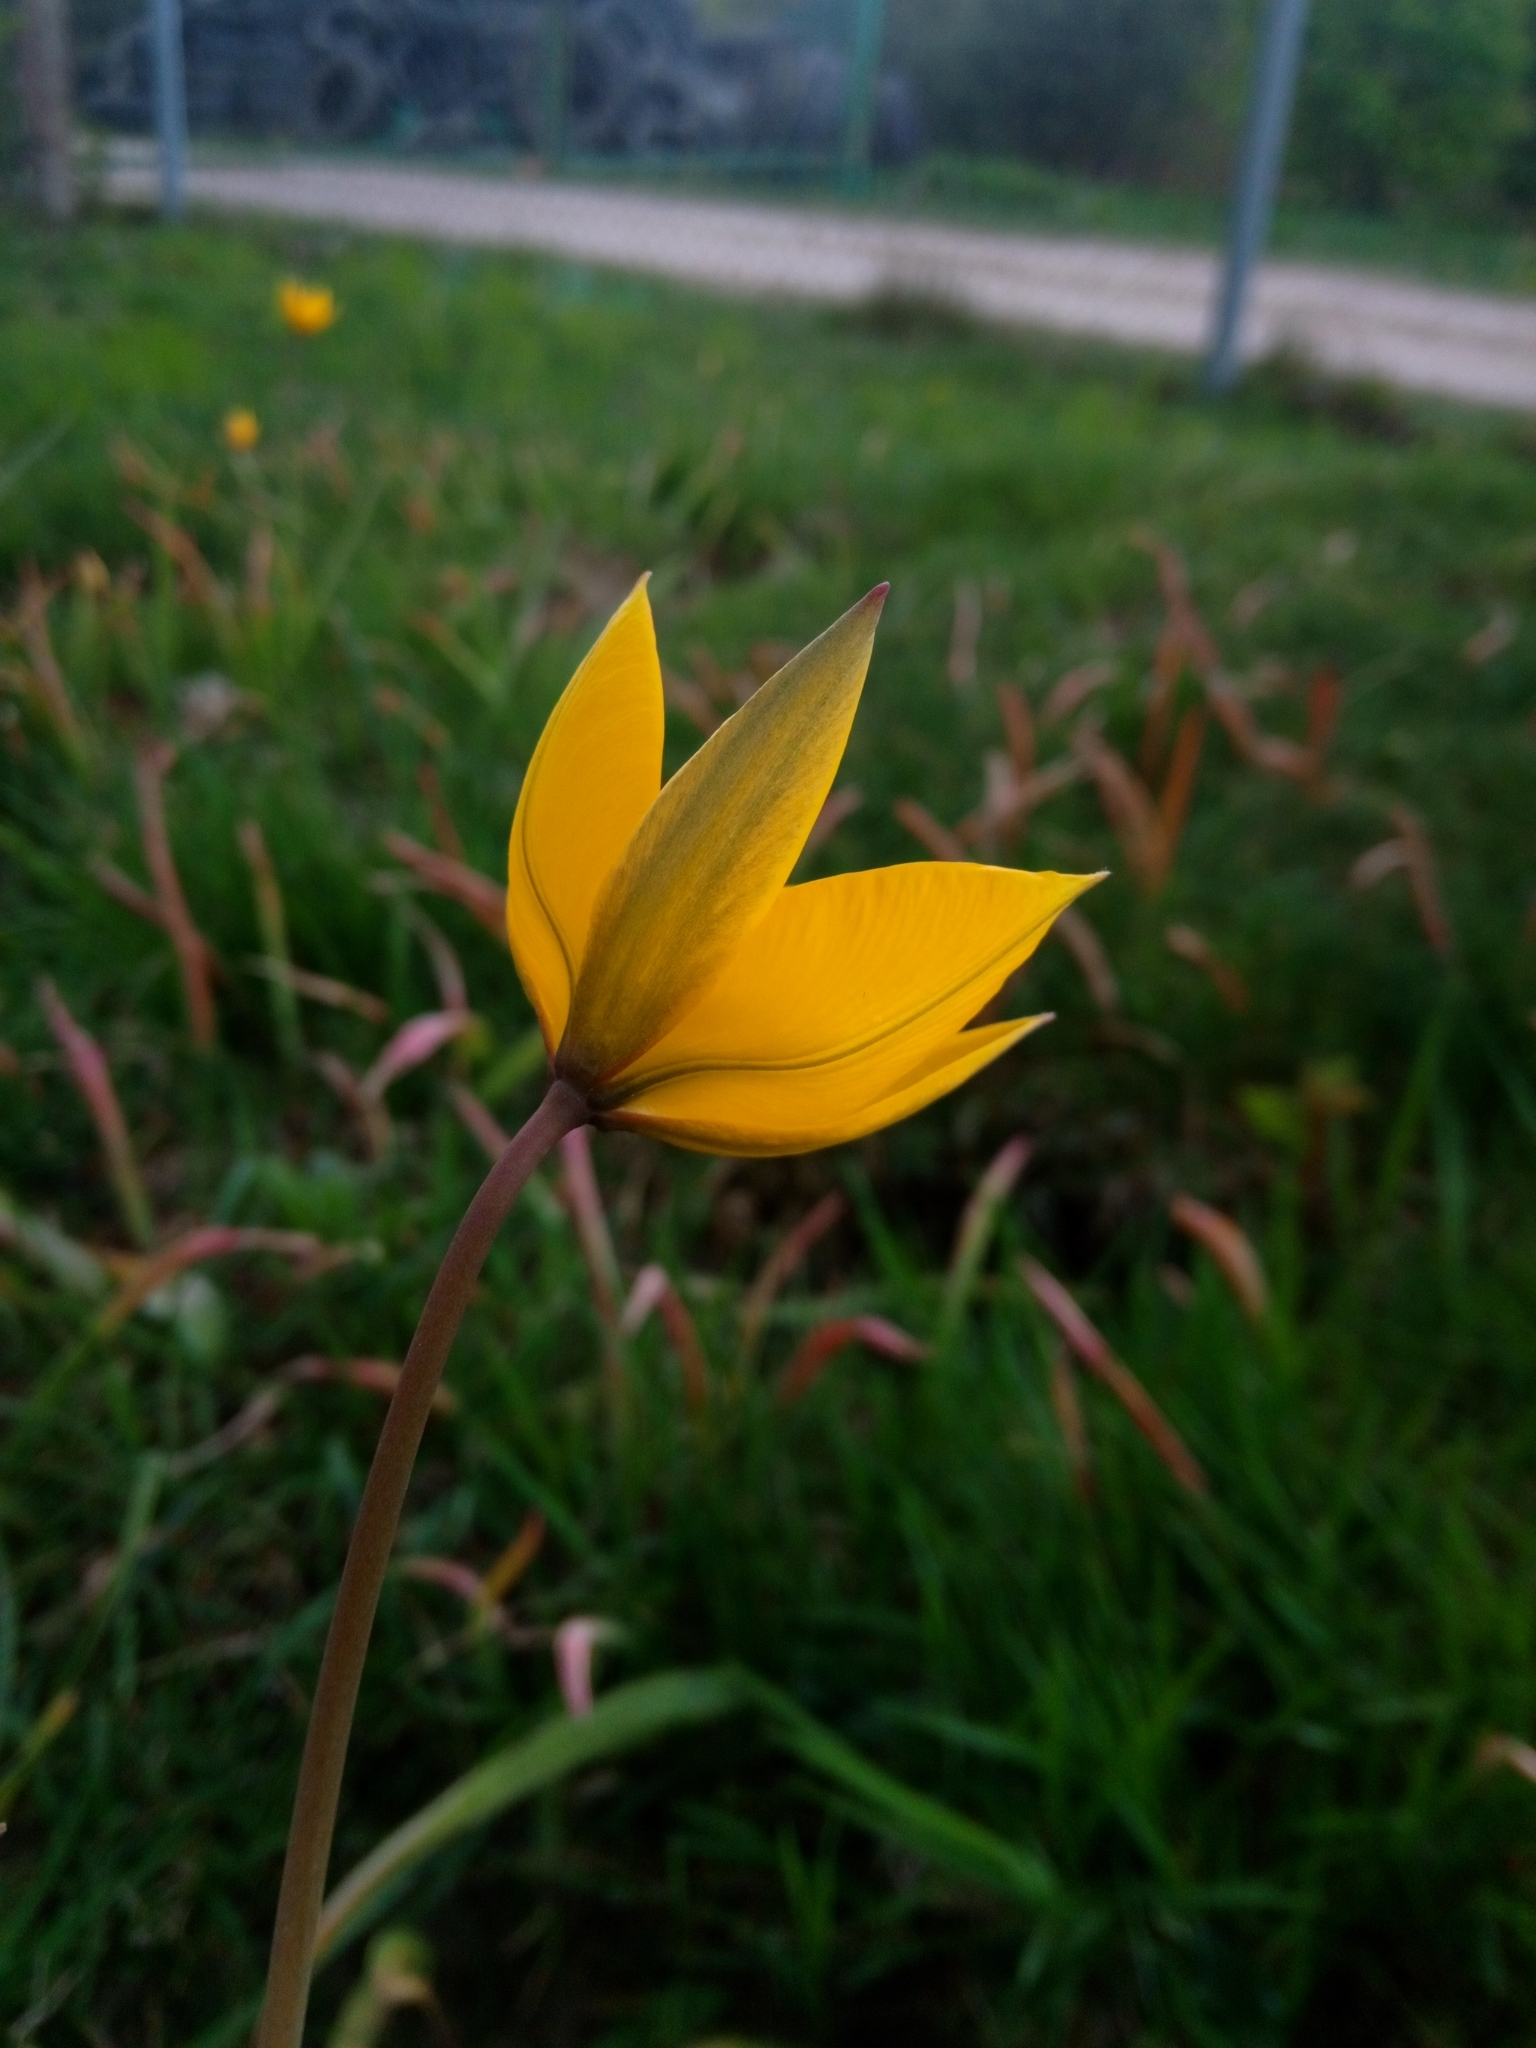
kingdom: Plantae
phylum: Tracheophyta
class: Liliopsida
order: Liliales
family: Liliaceae
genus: Tulipa
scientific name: Tulipa sylvestris
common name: Wild tulip
